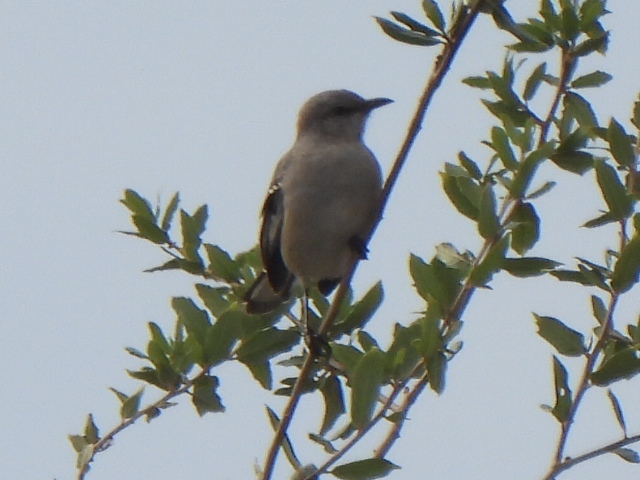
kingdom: Animalia
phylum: Chordata
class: Aves
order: Passeriformes
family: Mimidae
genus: Mimus
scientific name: Mimus polyglottos
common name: Northern mockingbird
